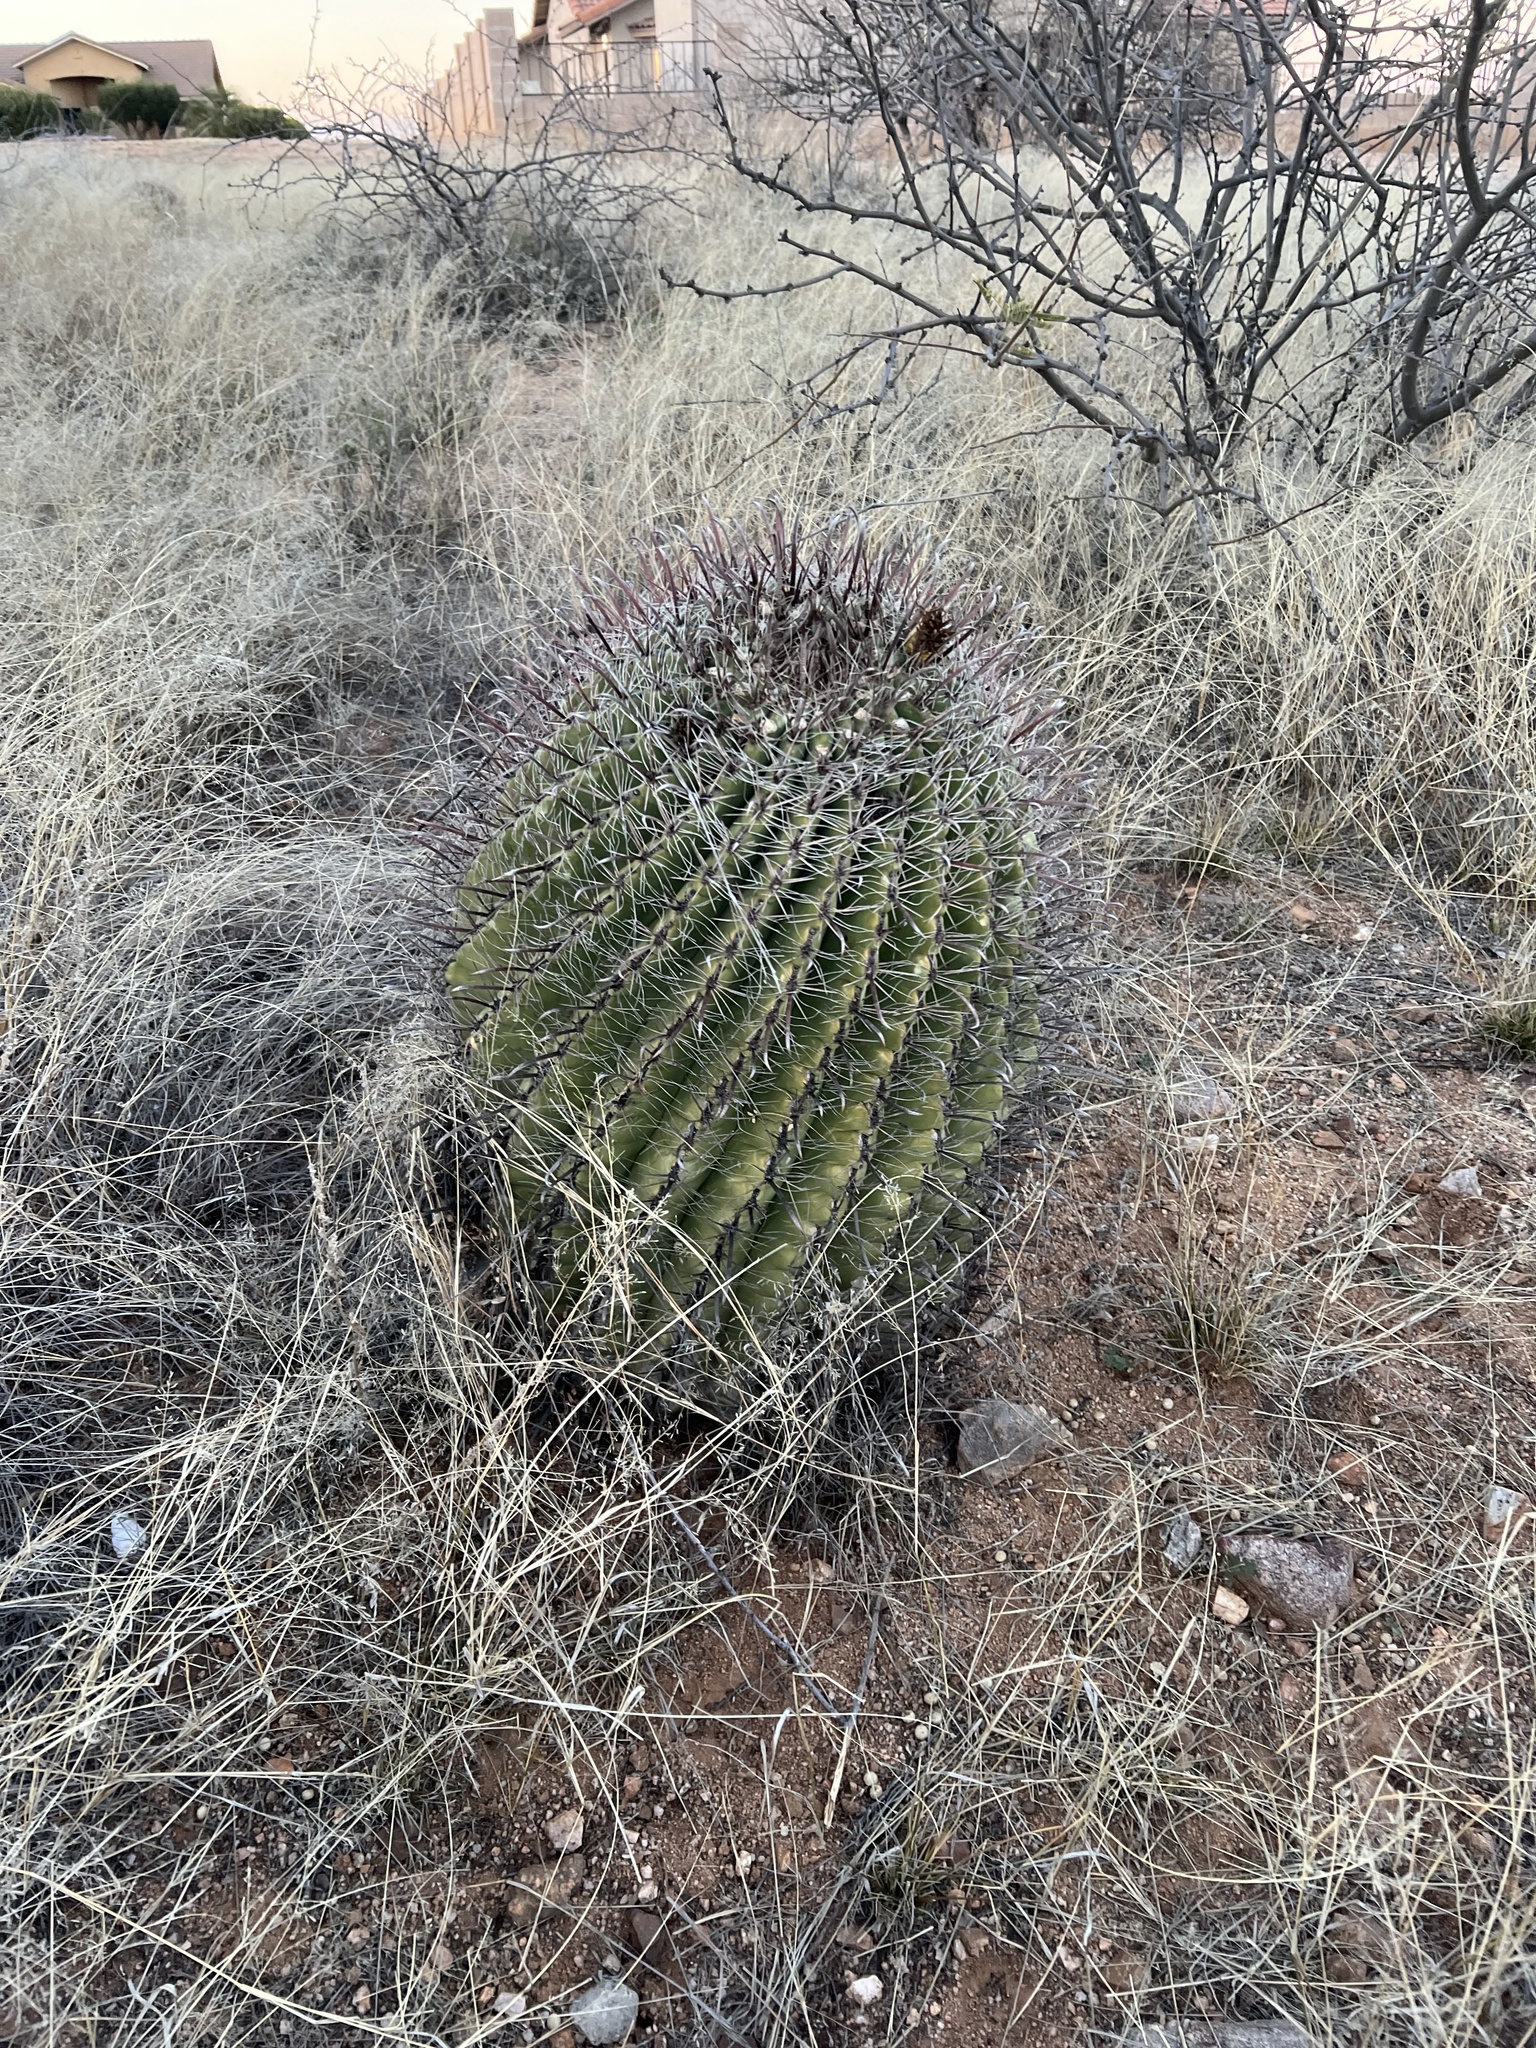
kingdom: Plantae
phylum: Tracheophyta
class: Magnoliopsida
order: Caryophyllales
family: Cactaceae
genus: Ferocactus
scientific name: Ferocactus wislizeni
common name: Candy barrel cactus
